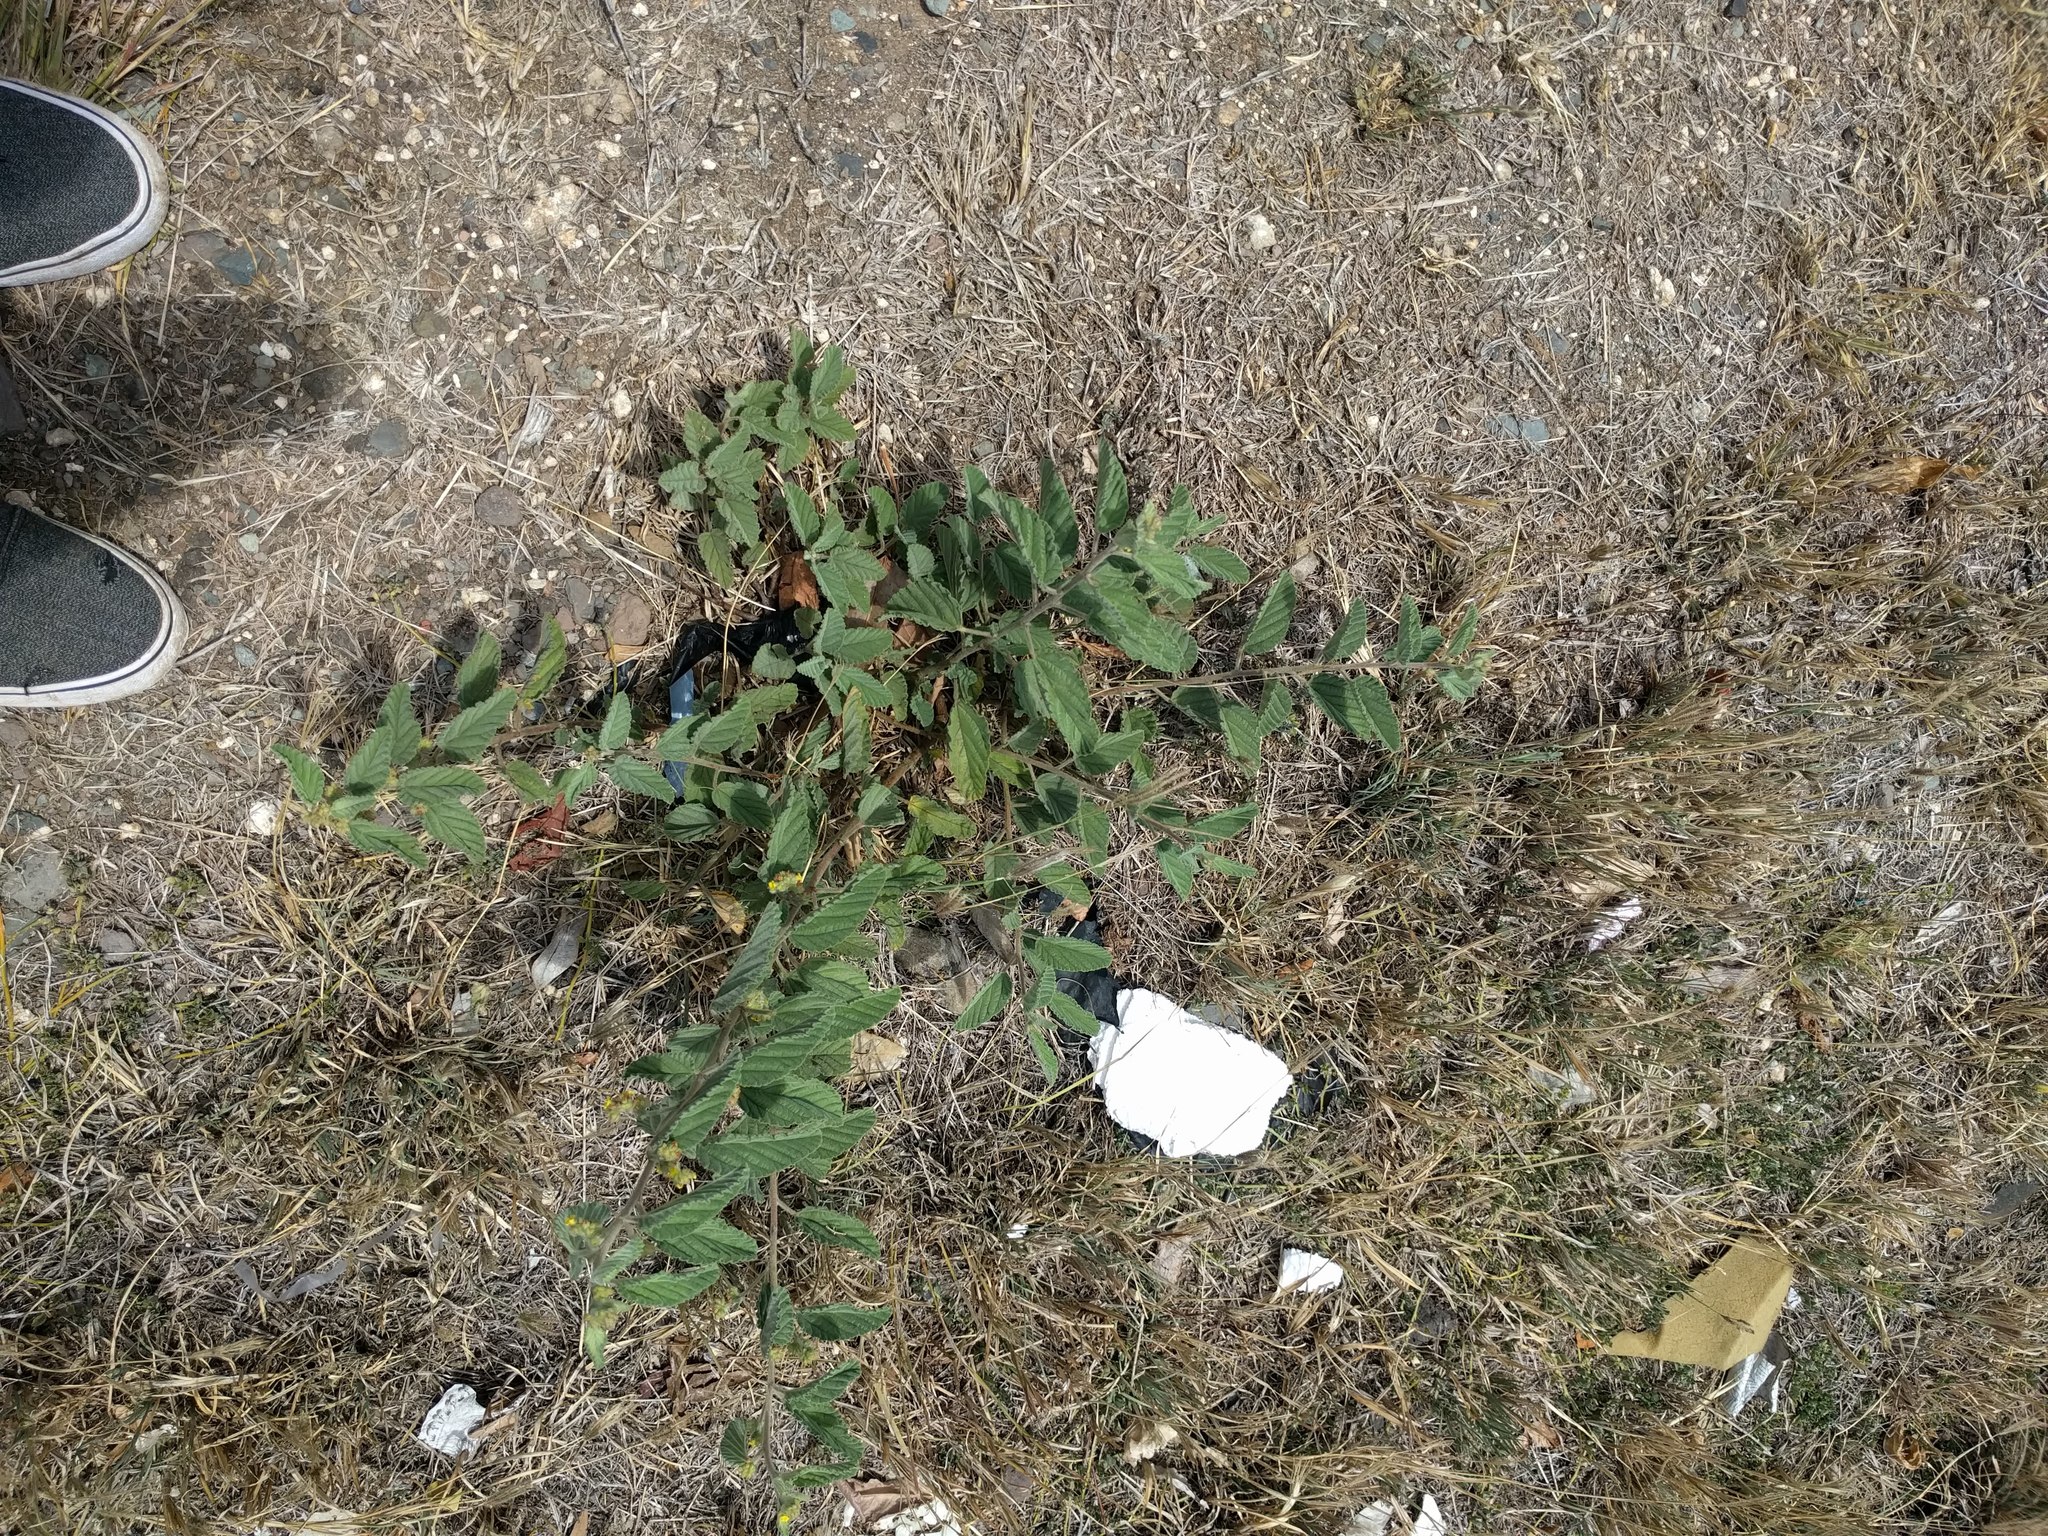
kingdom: Plantae
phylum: Tracheophyta
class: Magnoliopsida
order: Malvales
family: Malvaceae
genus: Waltheria
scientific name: Waltheria indica
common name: Leather-coat
